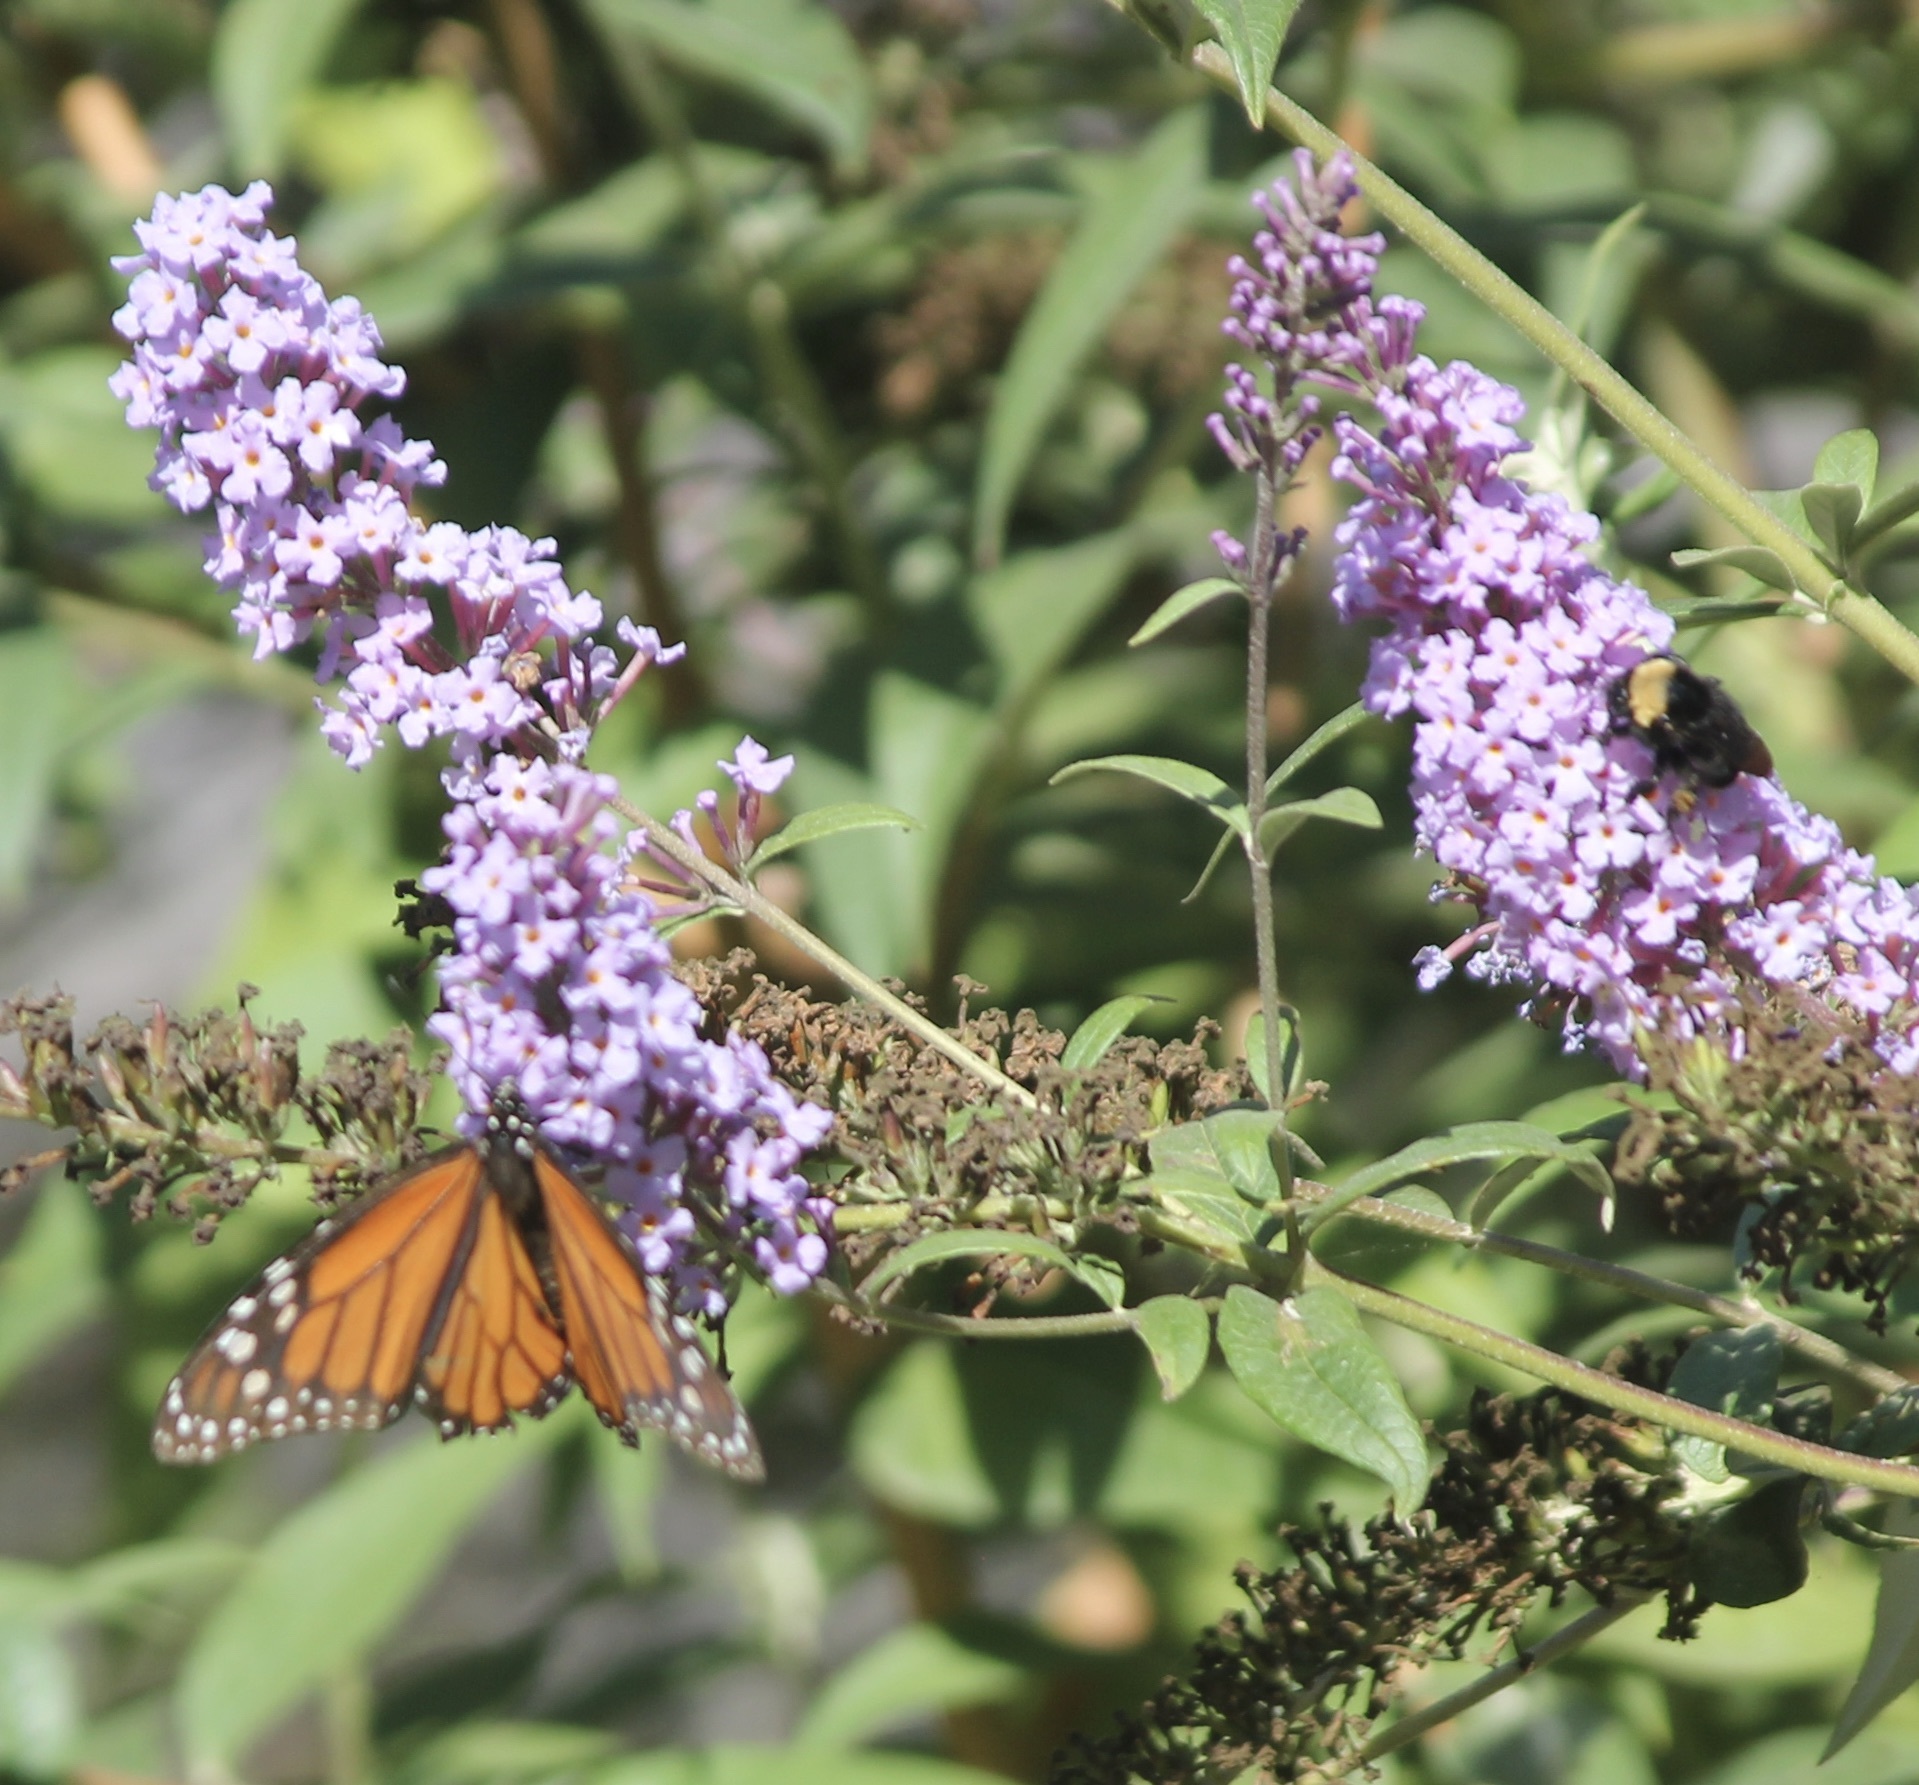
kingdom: Animalia
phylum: Arthropoda
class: Insecta
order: Hymenoptera
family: Apidae
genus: Bombus
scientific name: Bombus californicus
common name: California bumble bee
